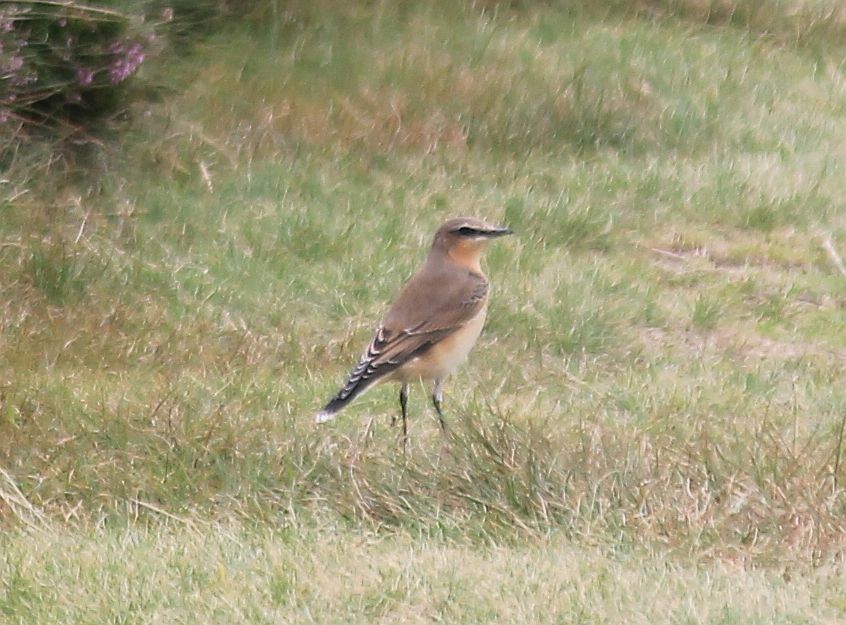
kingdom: Animalia
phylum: Chordata
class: Aves
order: Passeriformes
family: Muscicapidae
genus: Oenanthe
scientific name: Oenanthe oenanthe
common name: Northern wheatear
